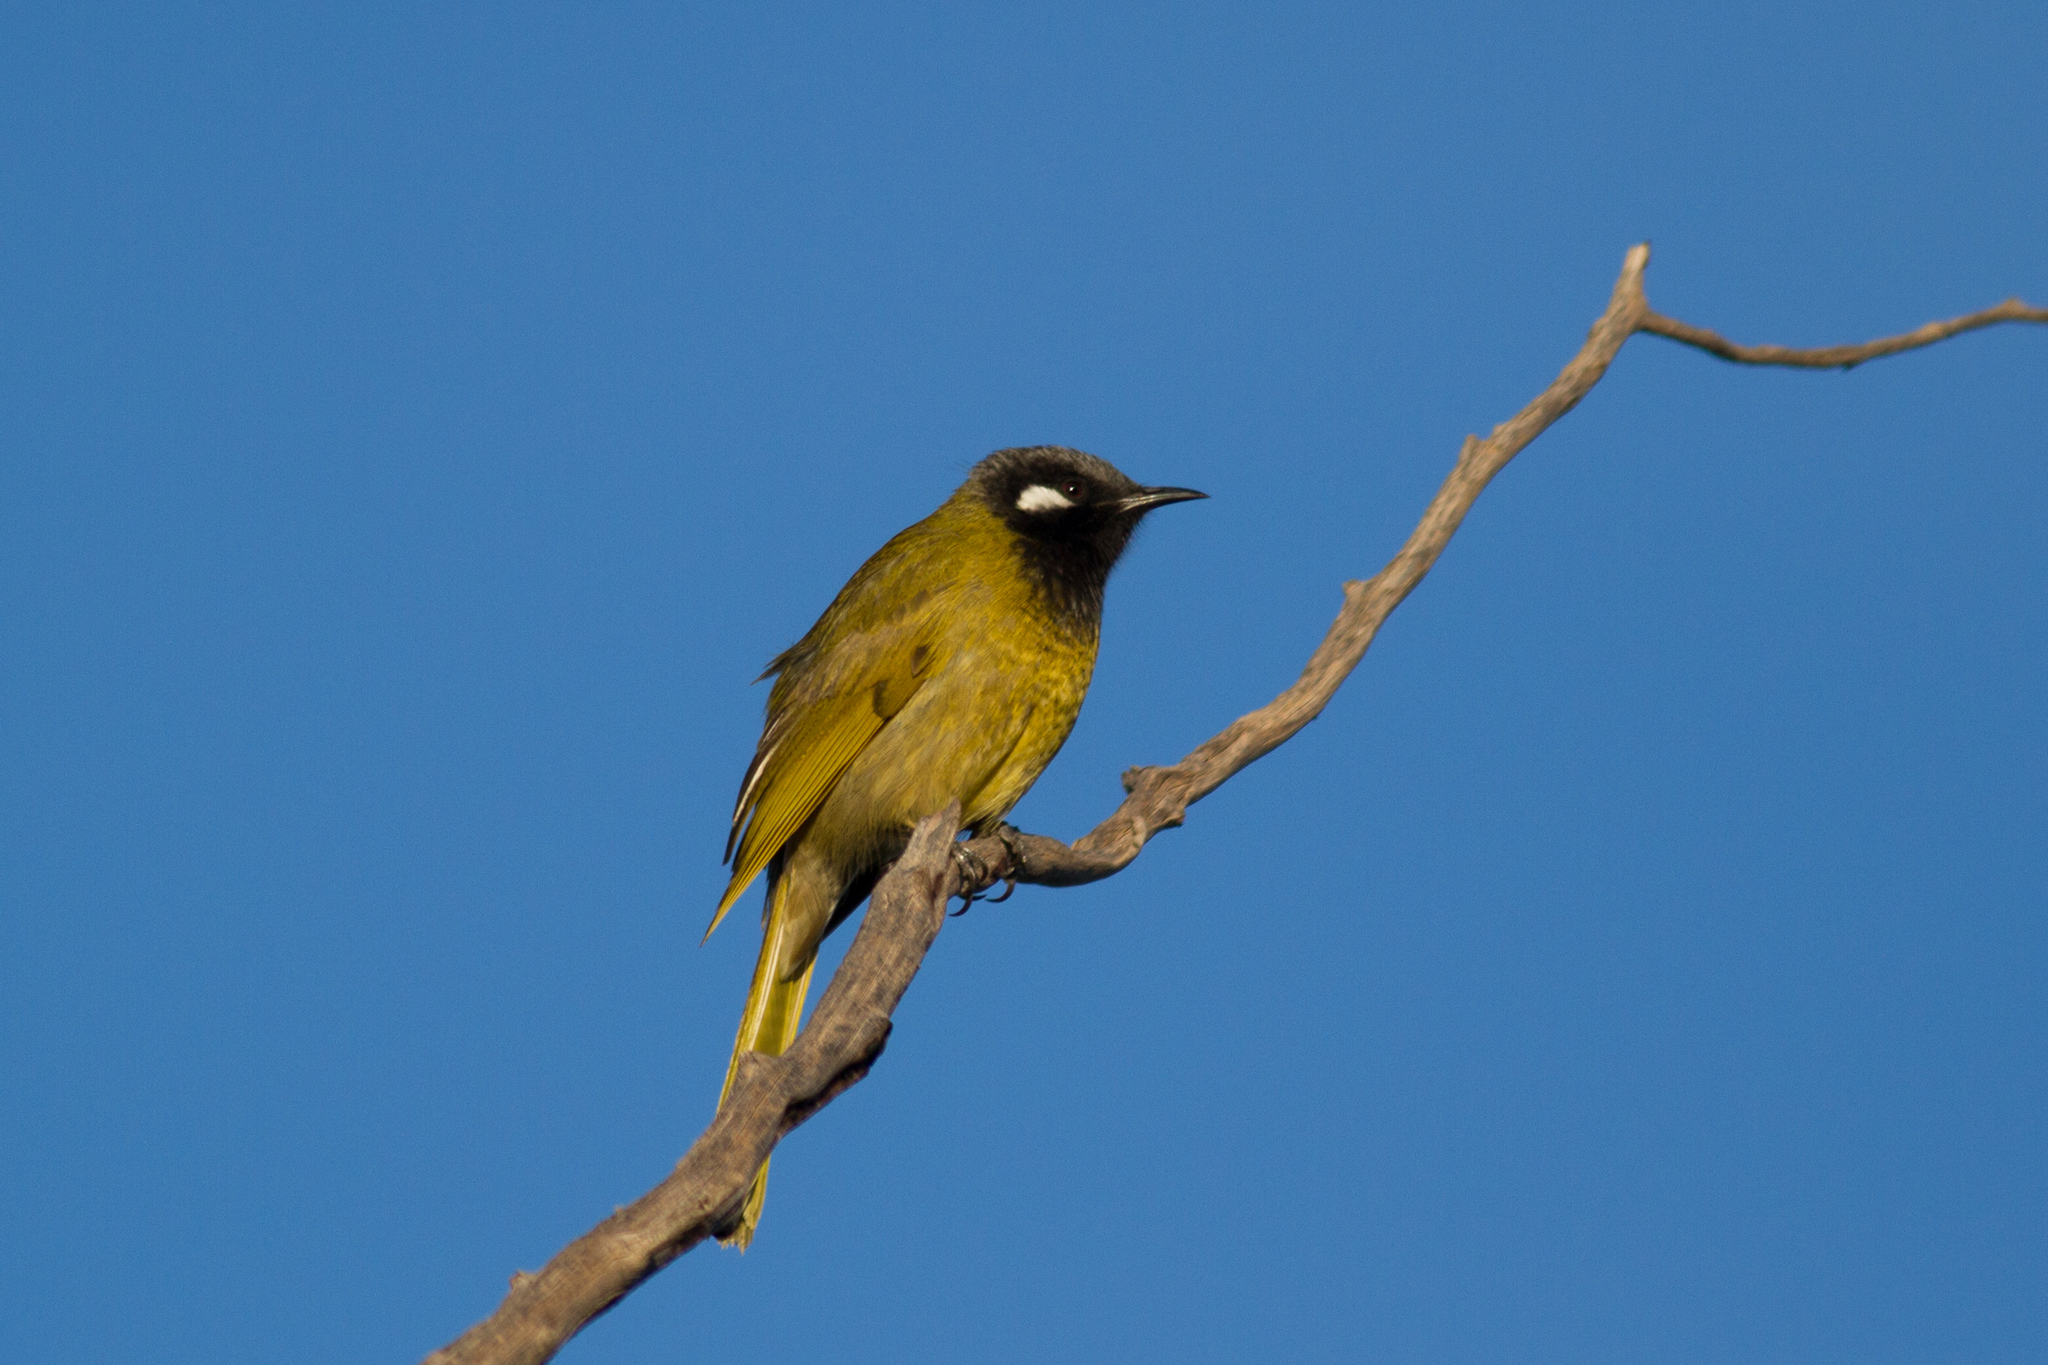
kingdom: Animalia
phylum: Chordata
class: Aves
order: Passeriformes
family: Meliphagidae
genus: Nesoptilotis
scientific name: Nesoptilotis leucotis
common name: White-eared honeyeater
